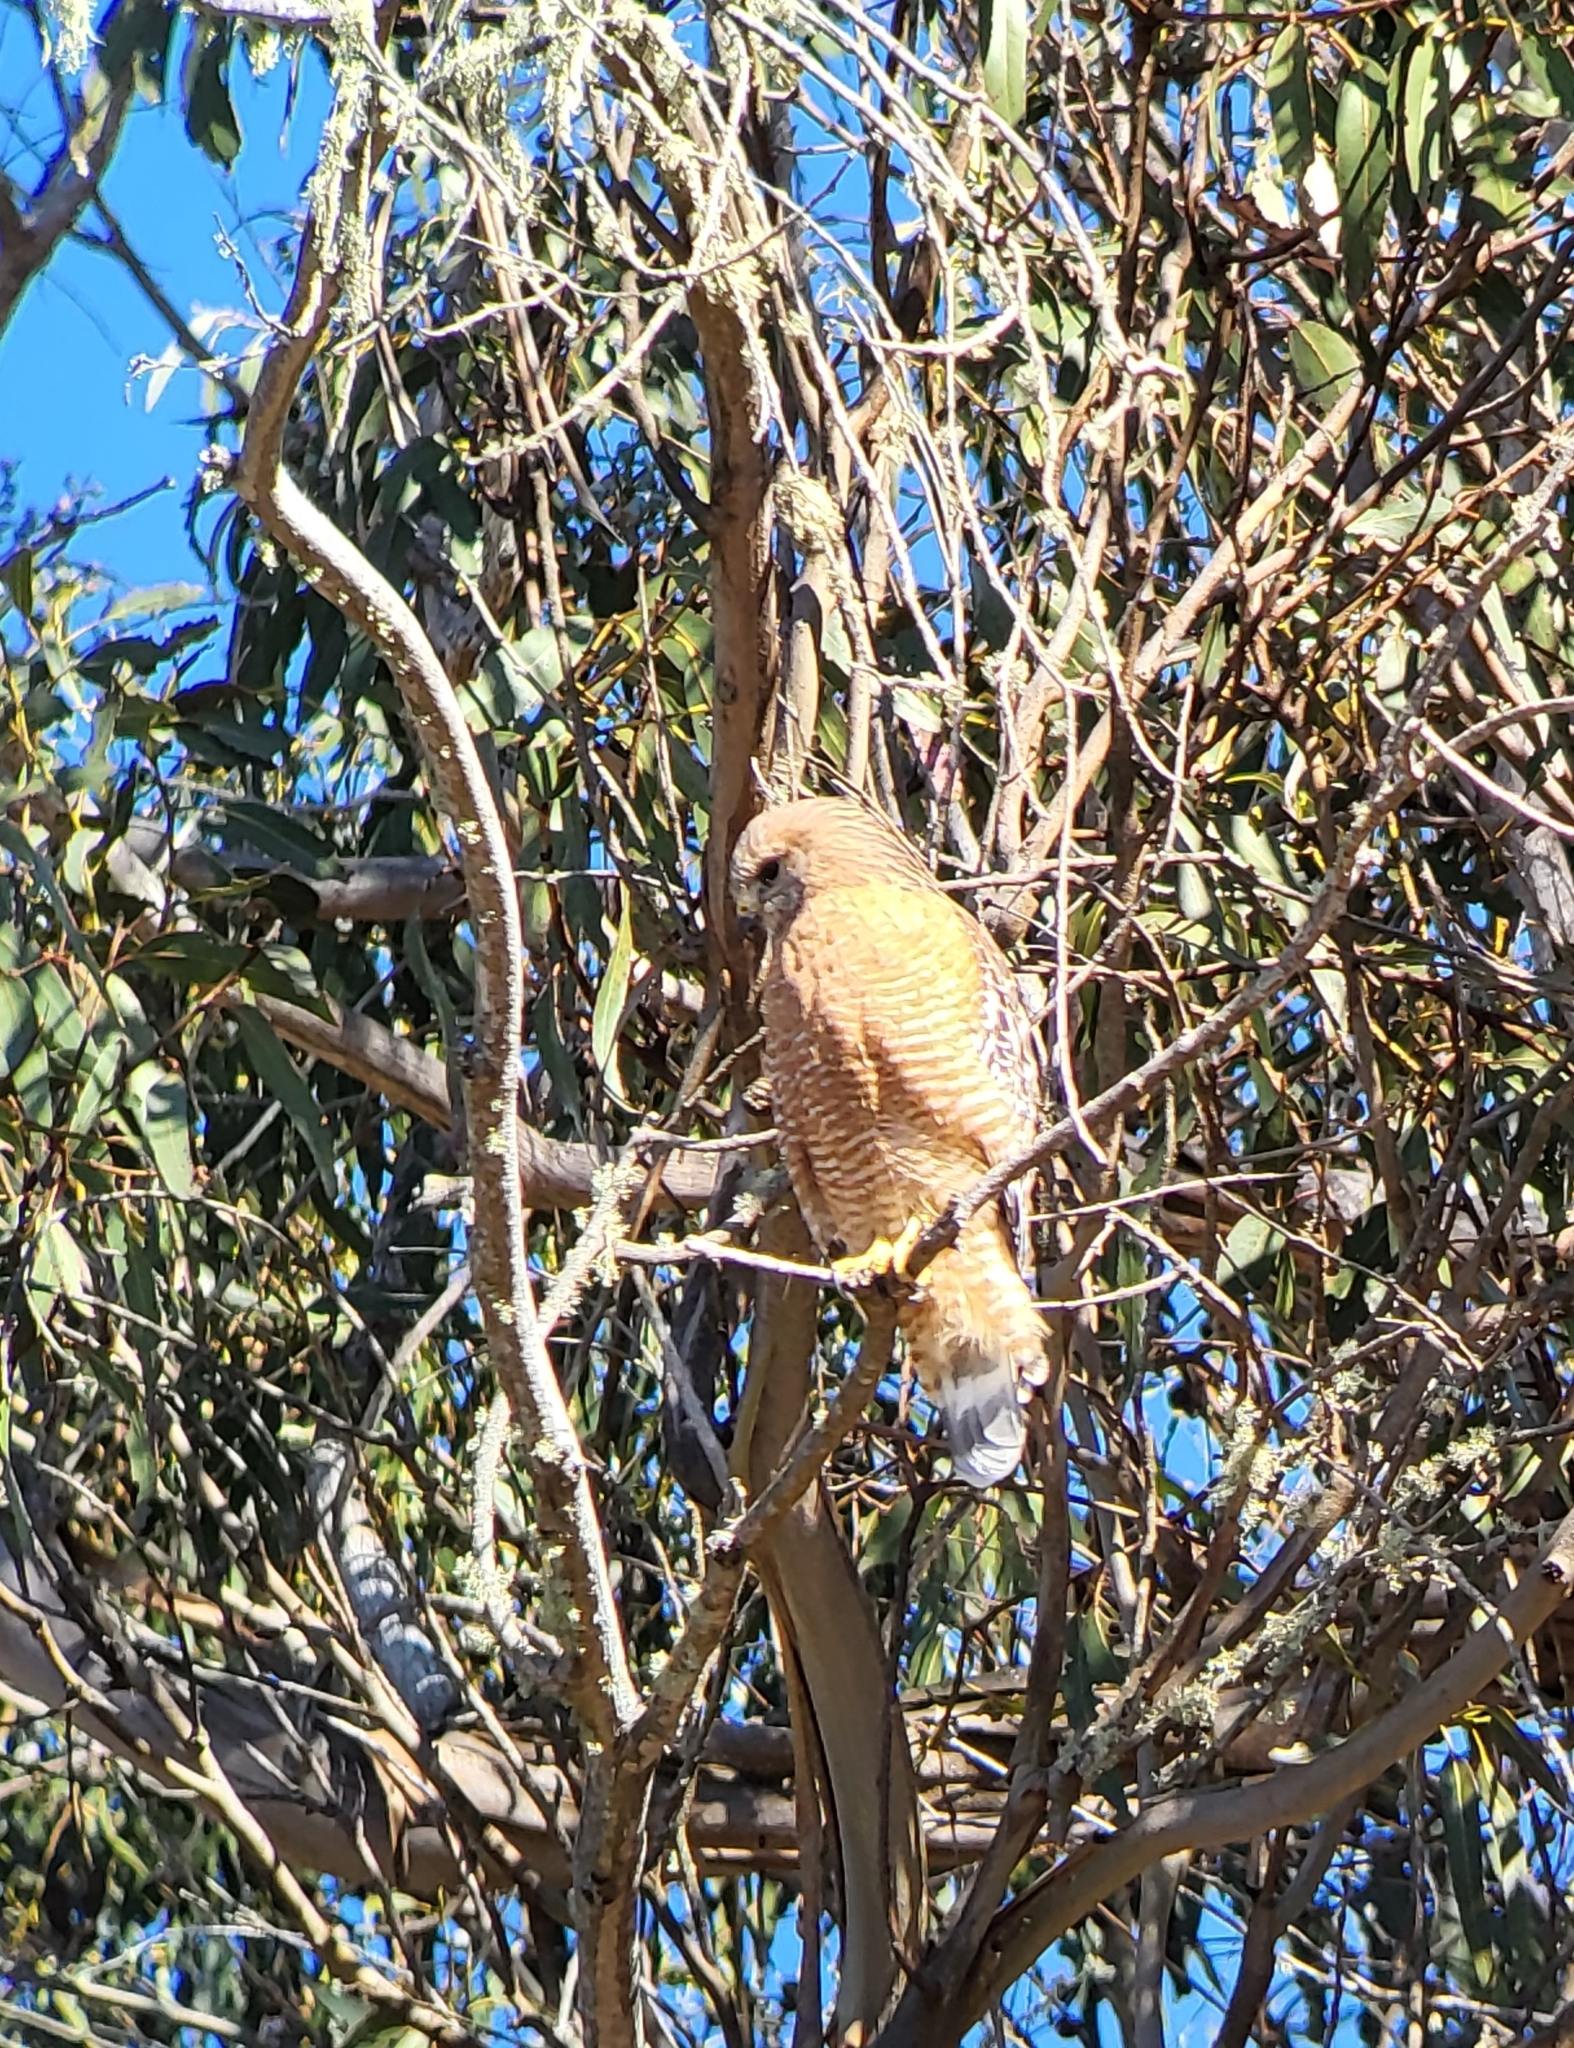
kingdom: Animalia
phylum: Chordata
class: Aves
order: Accipitriformes
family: Accipitridae
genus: Buteo
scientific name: Buteo lineatus
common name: Red-shouldered hawk
